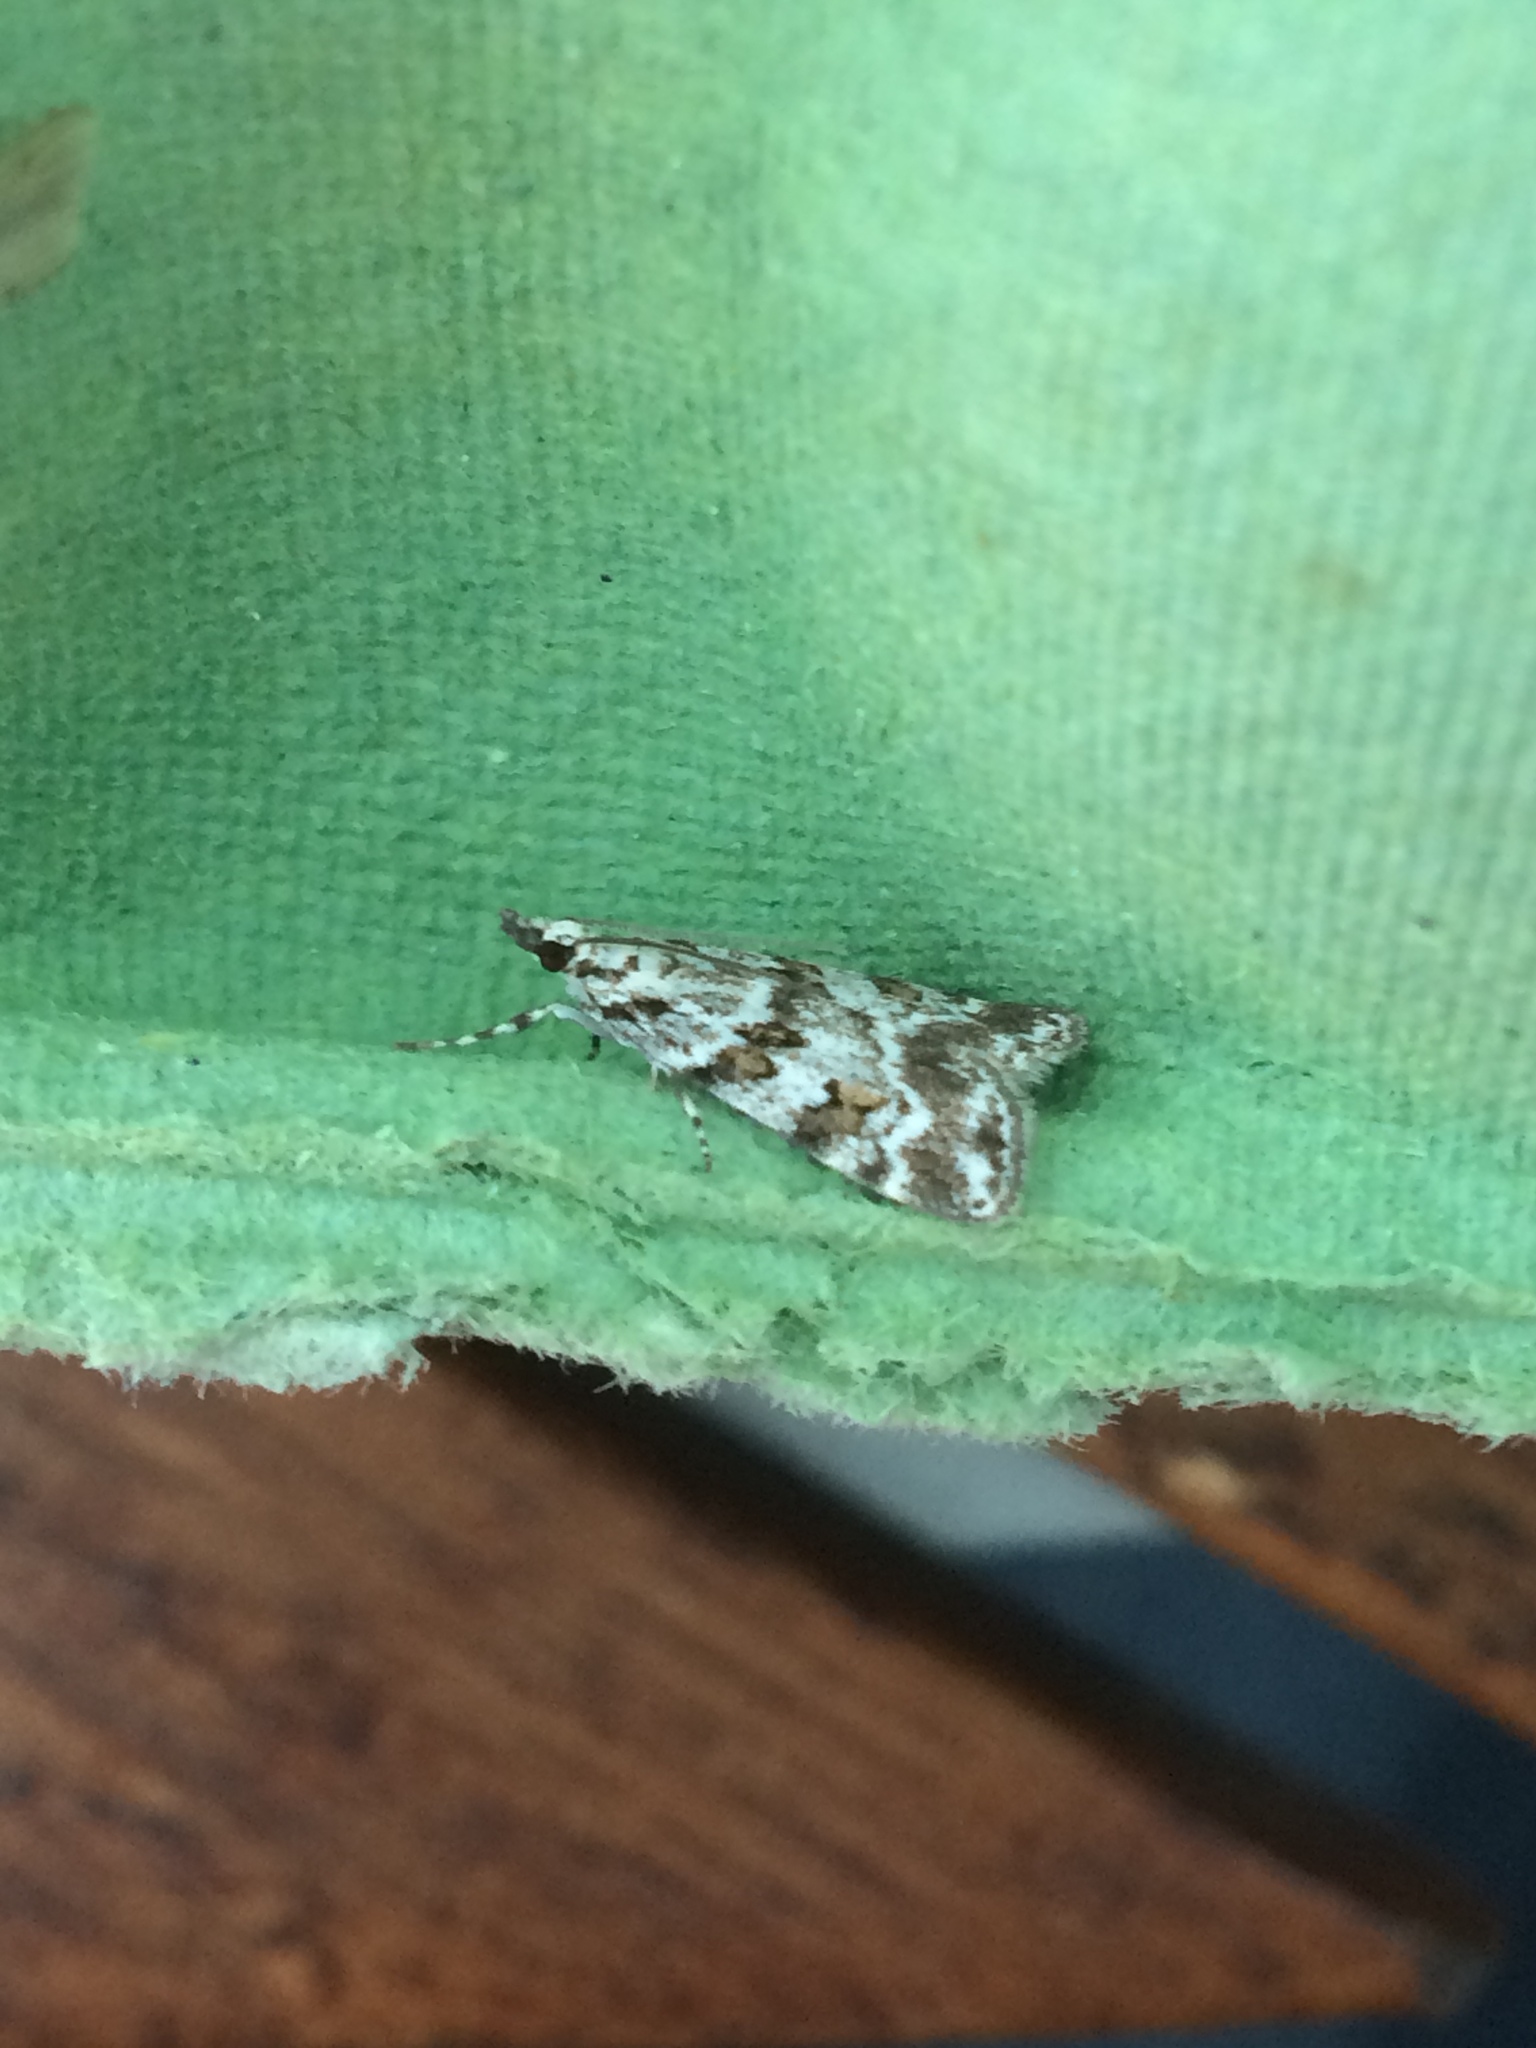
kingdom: Animalia
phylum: Arthropoda
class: Insecta
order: Lepidoptera
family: Crambidae
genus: Scoparia
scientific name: Scoparia pyralella
